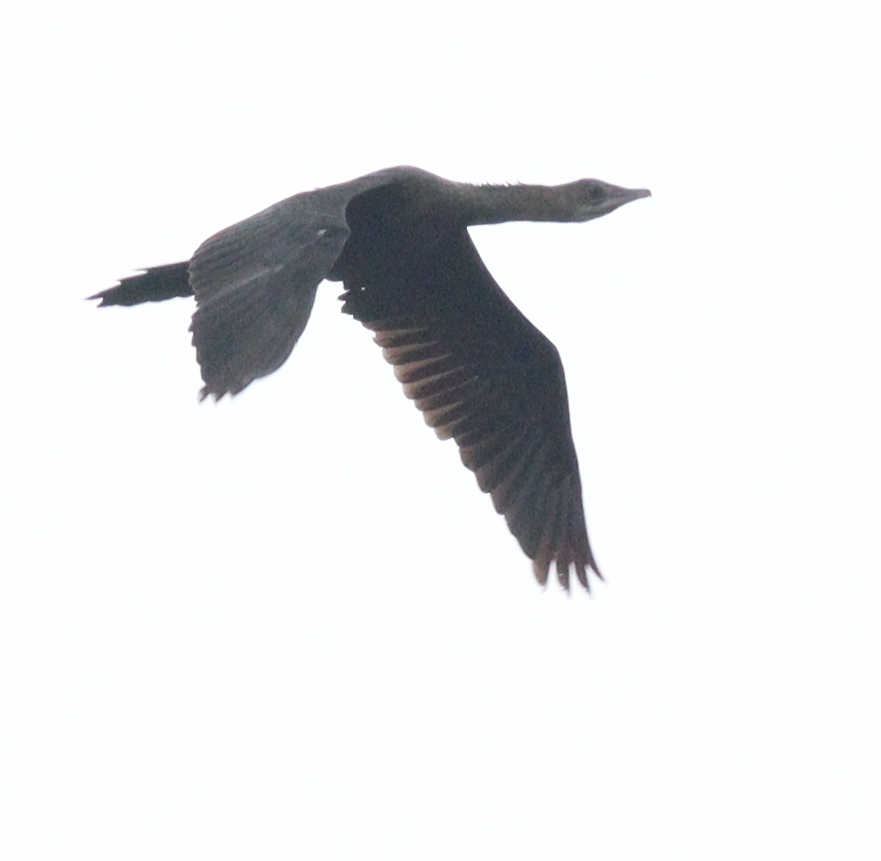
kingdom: Animalia
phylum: Chordata
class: Aves
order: Suliformes
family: Phalacrocoracidae
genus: Microcarbo
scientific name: Microcarbo niger
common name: Little cormorant
